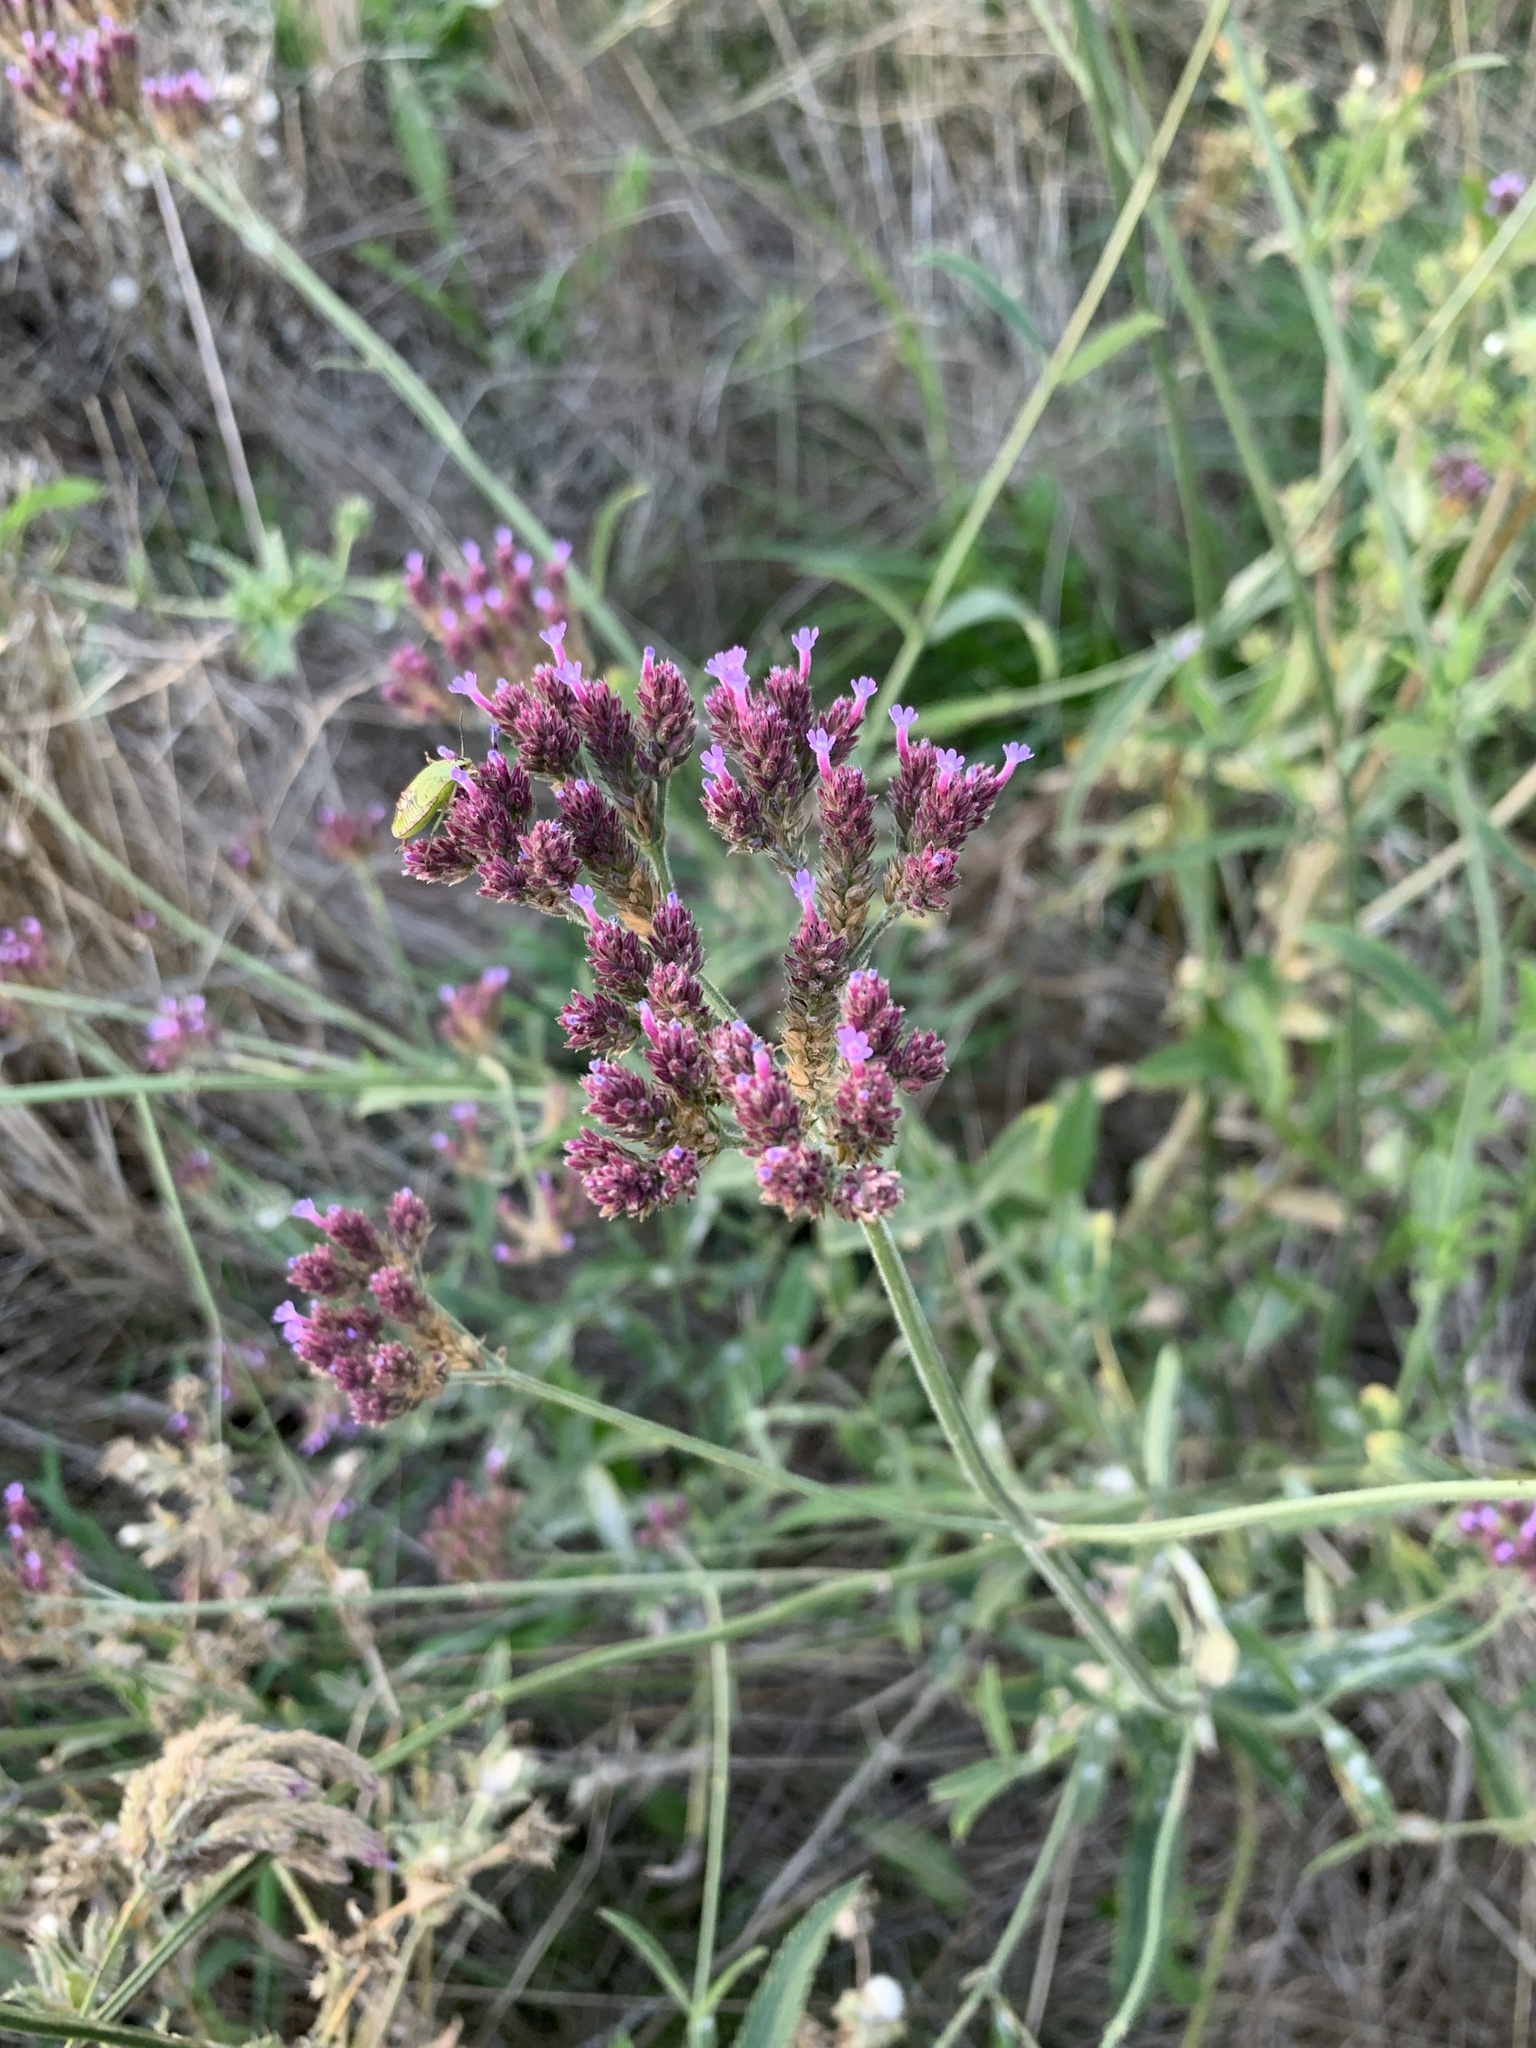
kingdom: Plantae
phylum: Tracheophyta
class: Magnoliopsida
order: Lamiales
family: Verbenaceae
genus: Verbena
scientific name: Verbena bonariensis
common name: Purpletop vervain
